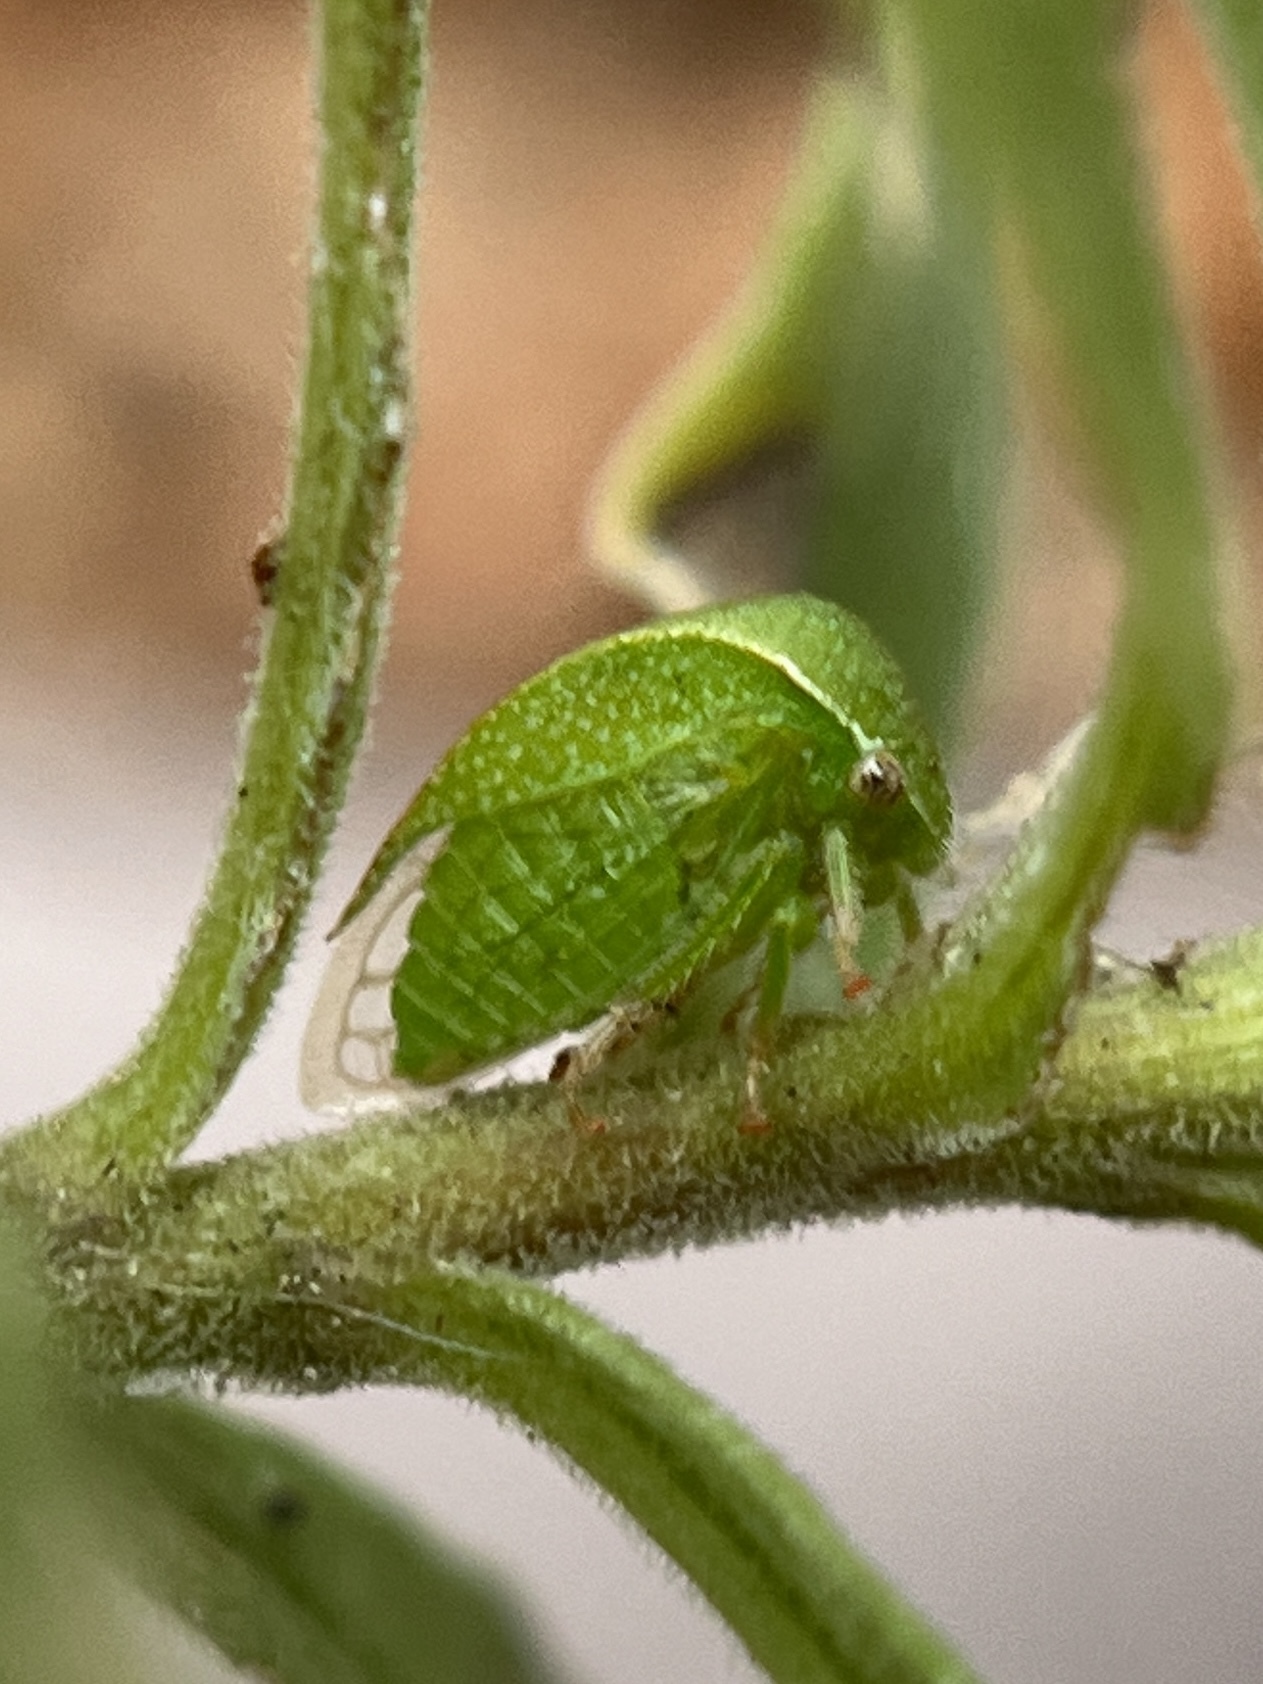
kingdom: Animalia
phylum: Arthropoda
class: Insecta
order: Hemiptera
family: Membracidae
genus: Spissistilus
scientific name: Spissistilus festina
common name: Membracid bug
